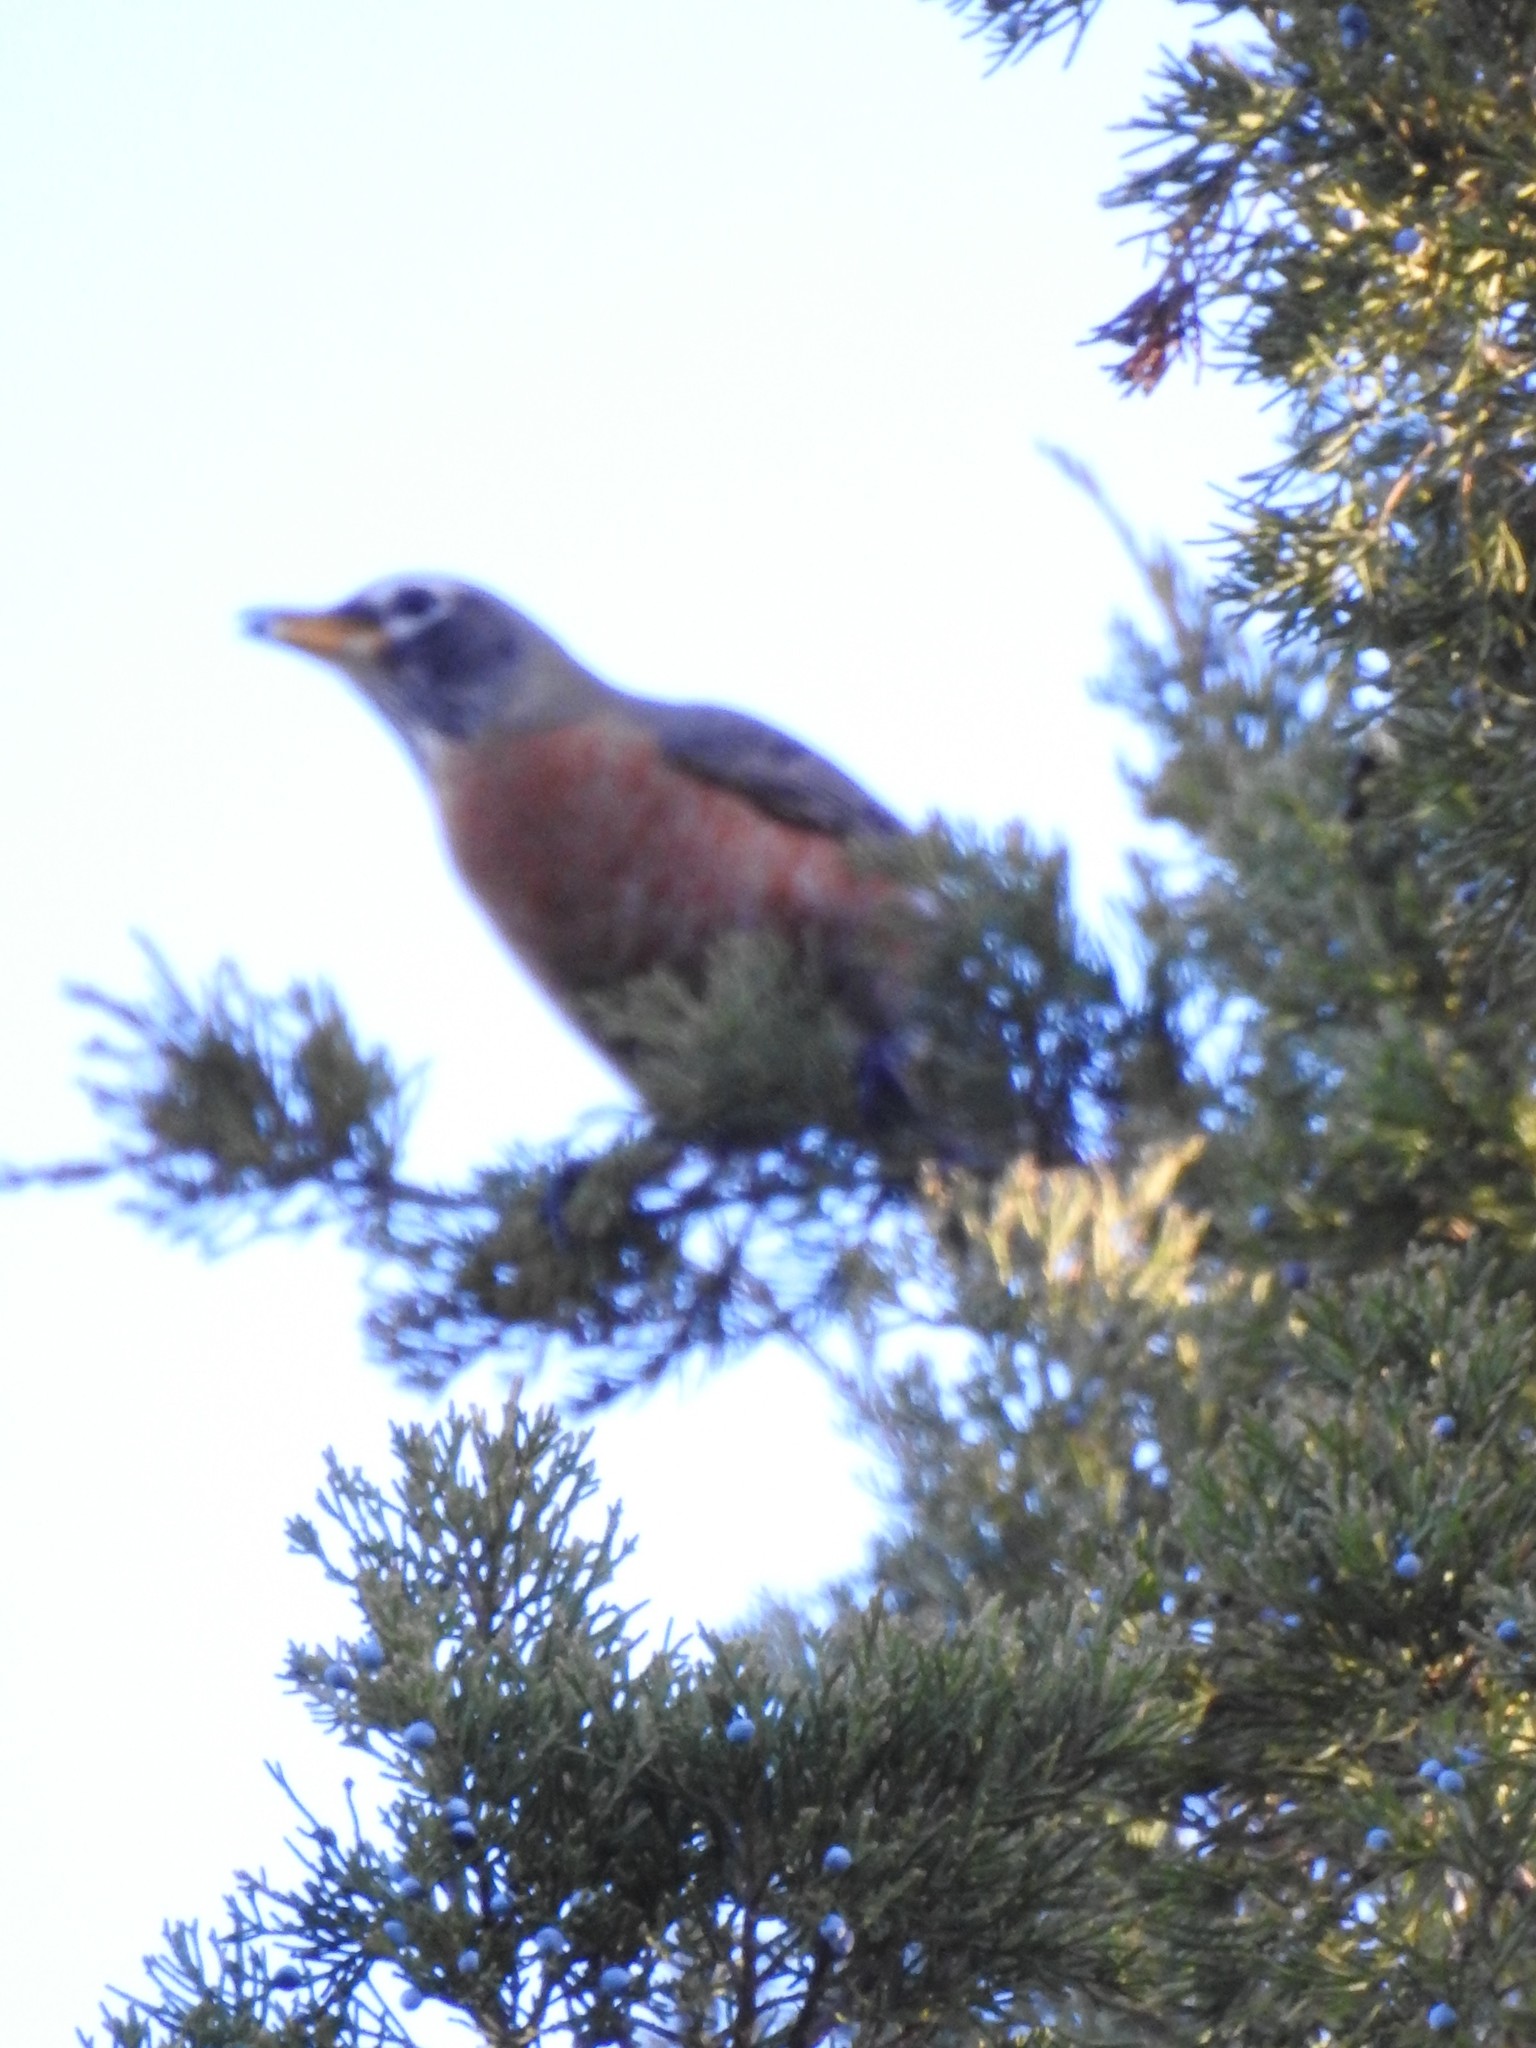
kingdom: Animalia
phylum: Chordata
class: Aves
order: Passeriformes
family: Turdidae
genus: Turdus
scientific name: Turdus migratorius
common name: American robin
